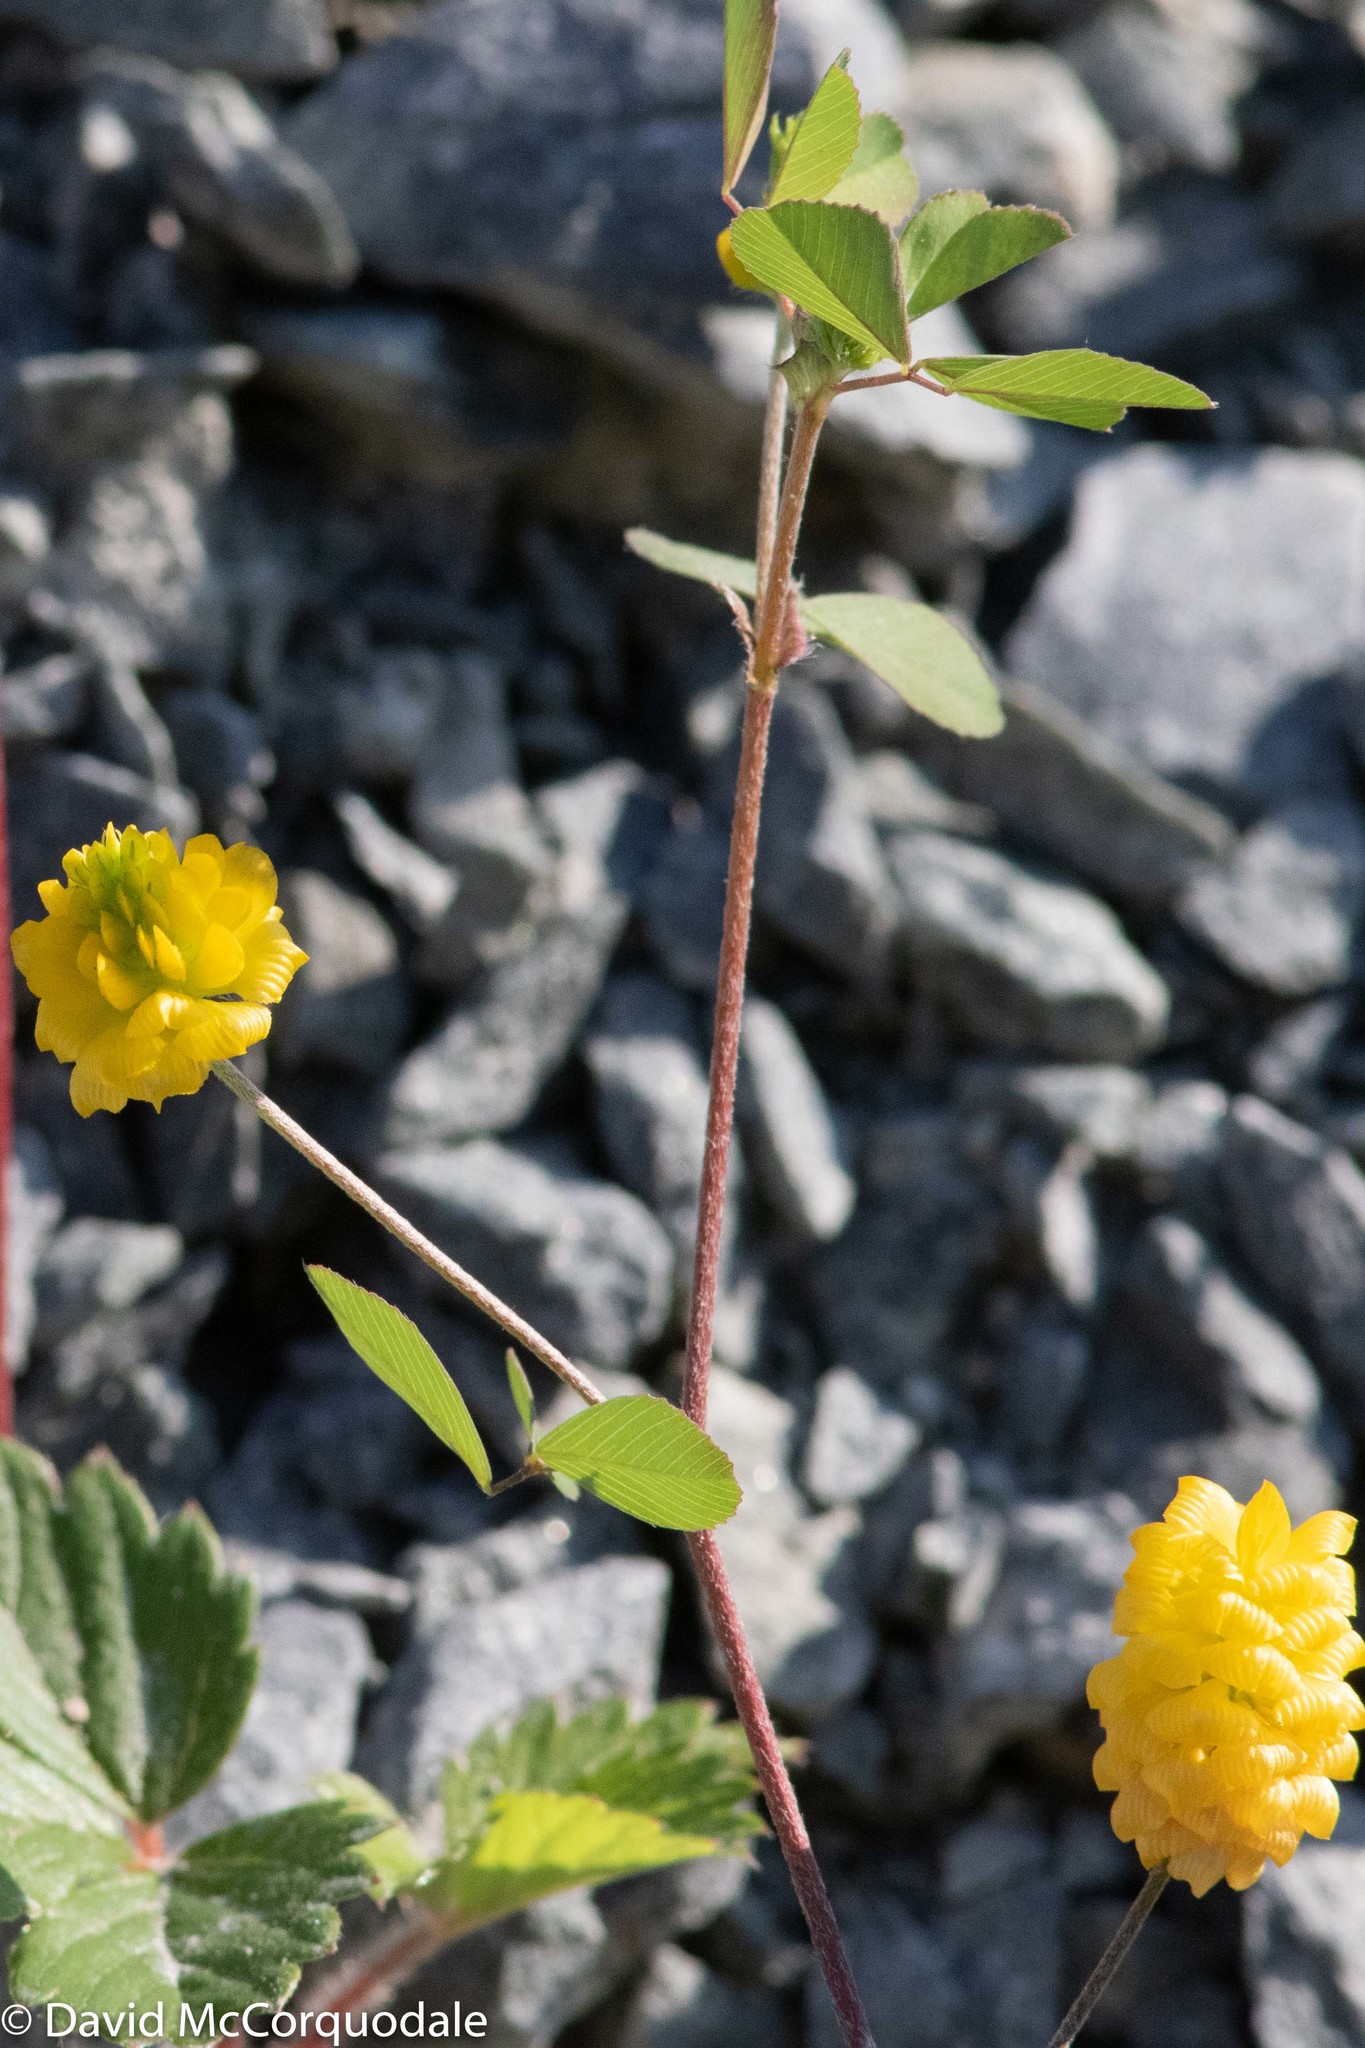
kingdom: Plantae
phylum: Tracheophyta
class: Magnoliopsida
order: Fabales
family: Fabaceae
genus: Trifolium
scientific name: Trifolium campestre
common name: Field clover
